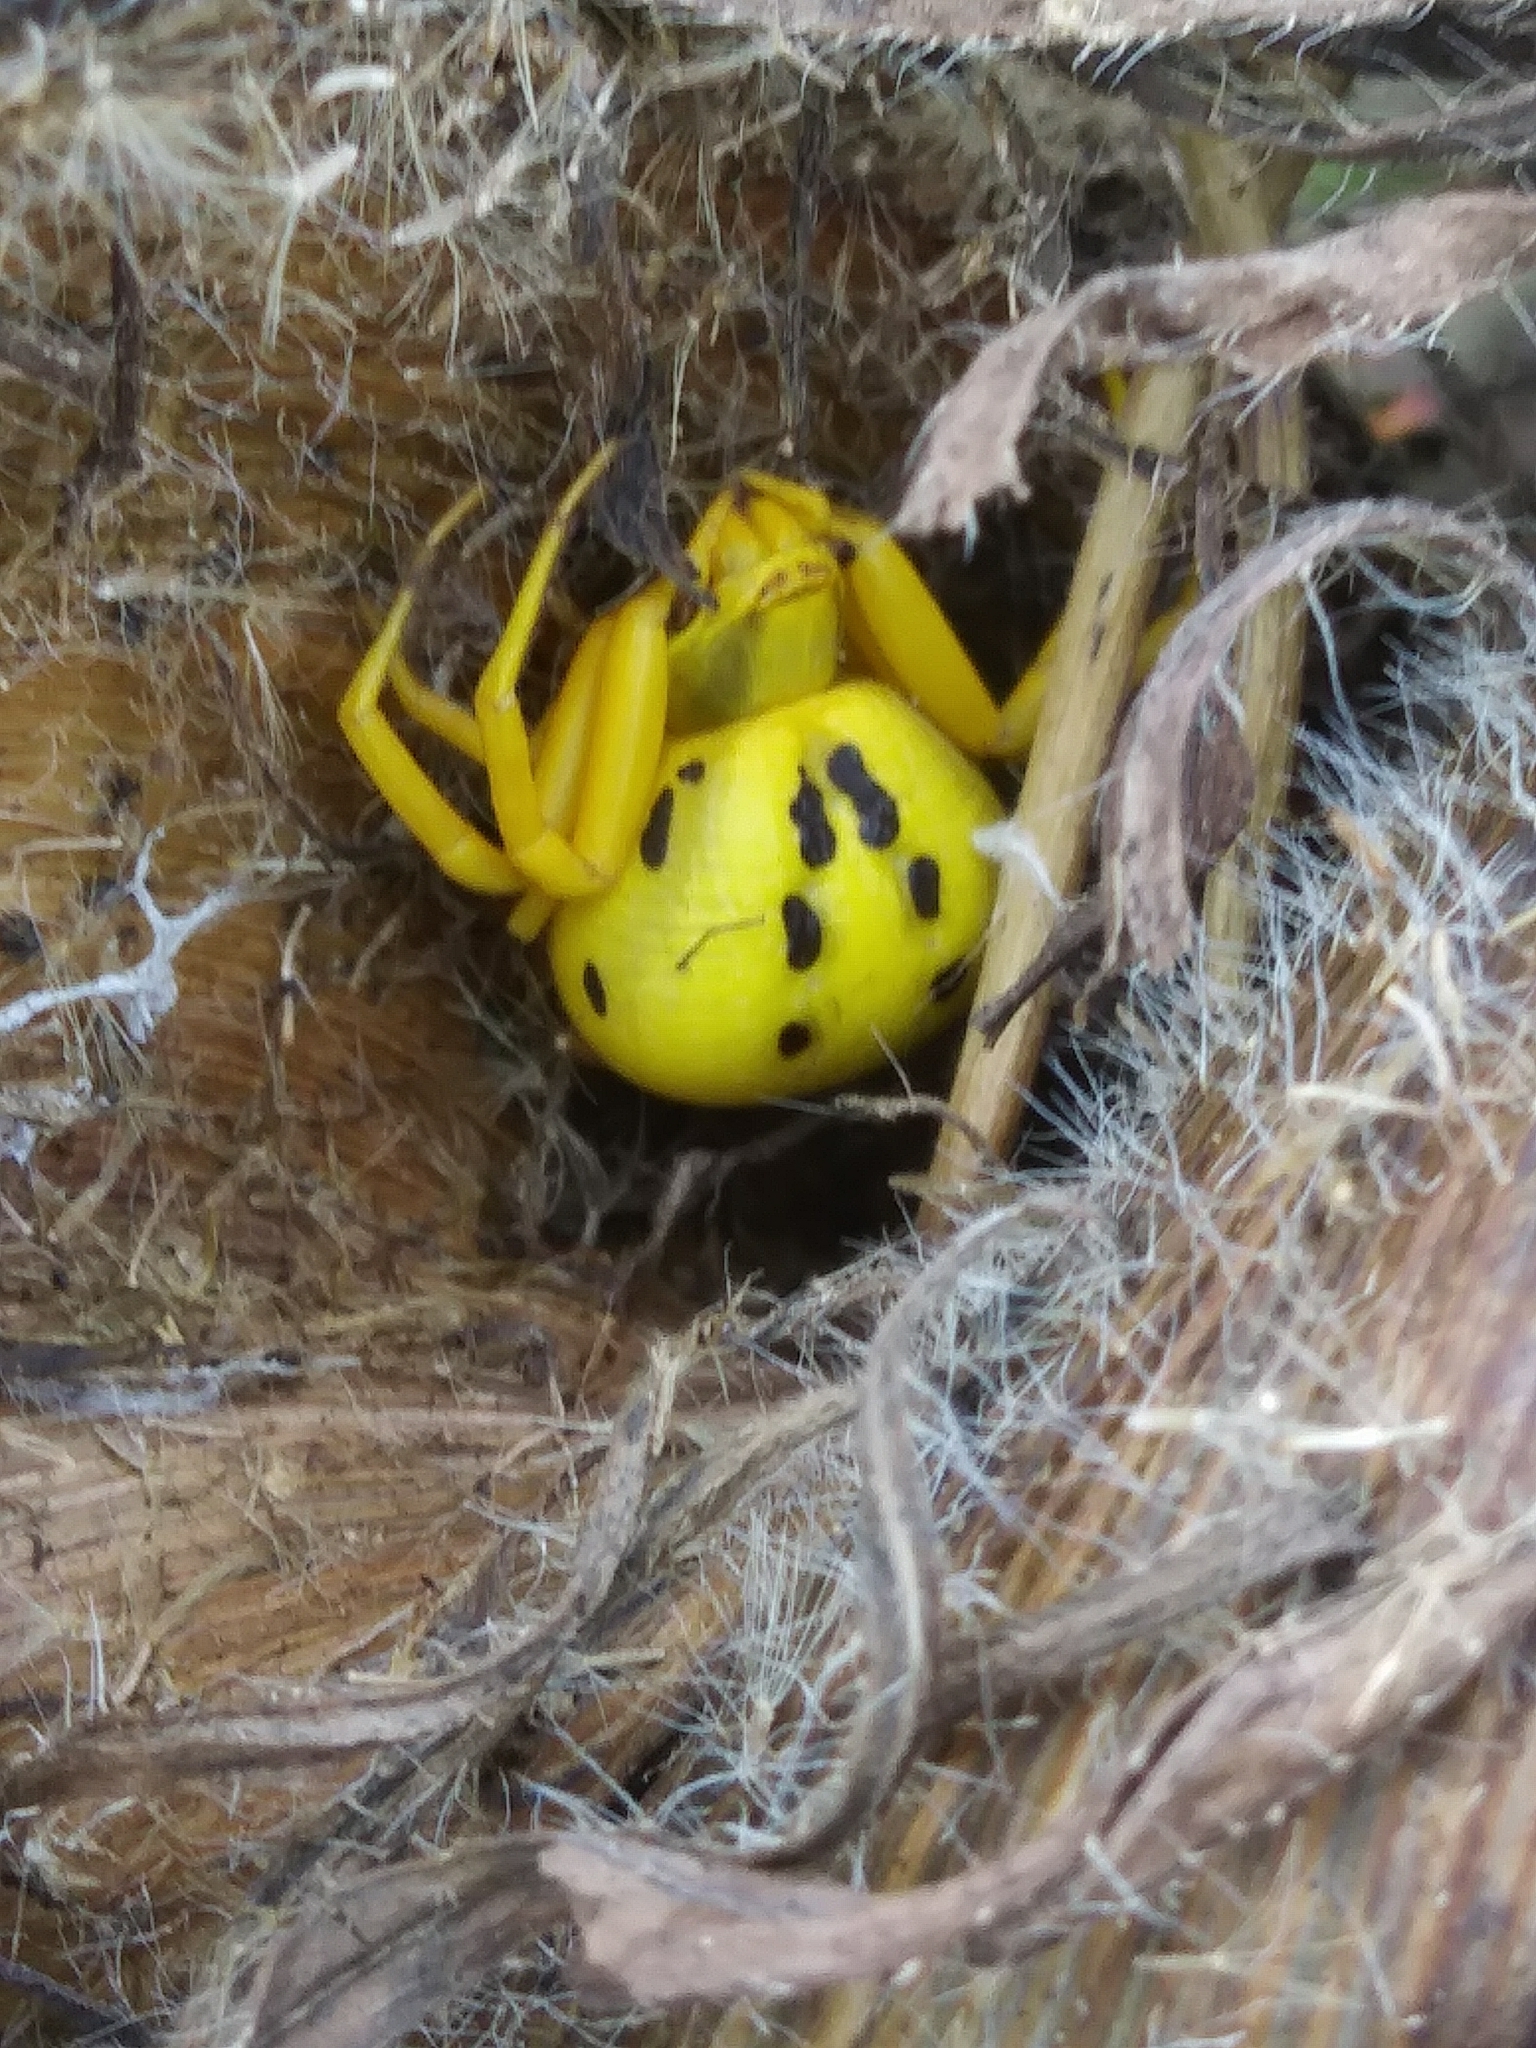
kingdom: Animalia
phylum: Arthropoda
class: Arachnida
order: Araneae
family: Thomisidae
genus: Misumenoides
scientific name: Misumenoides formosipes
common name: White-banded crab spider
